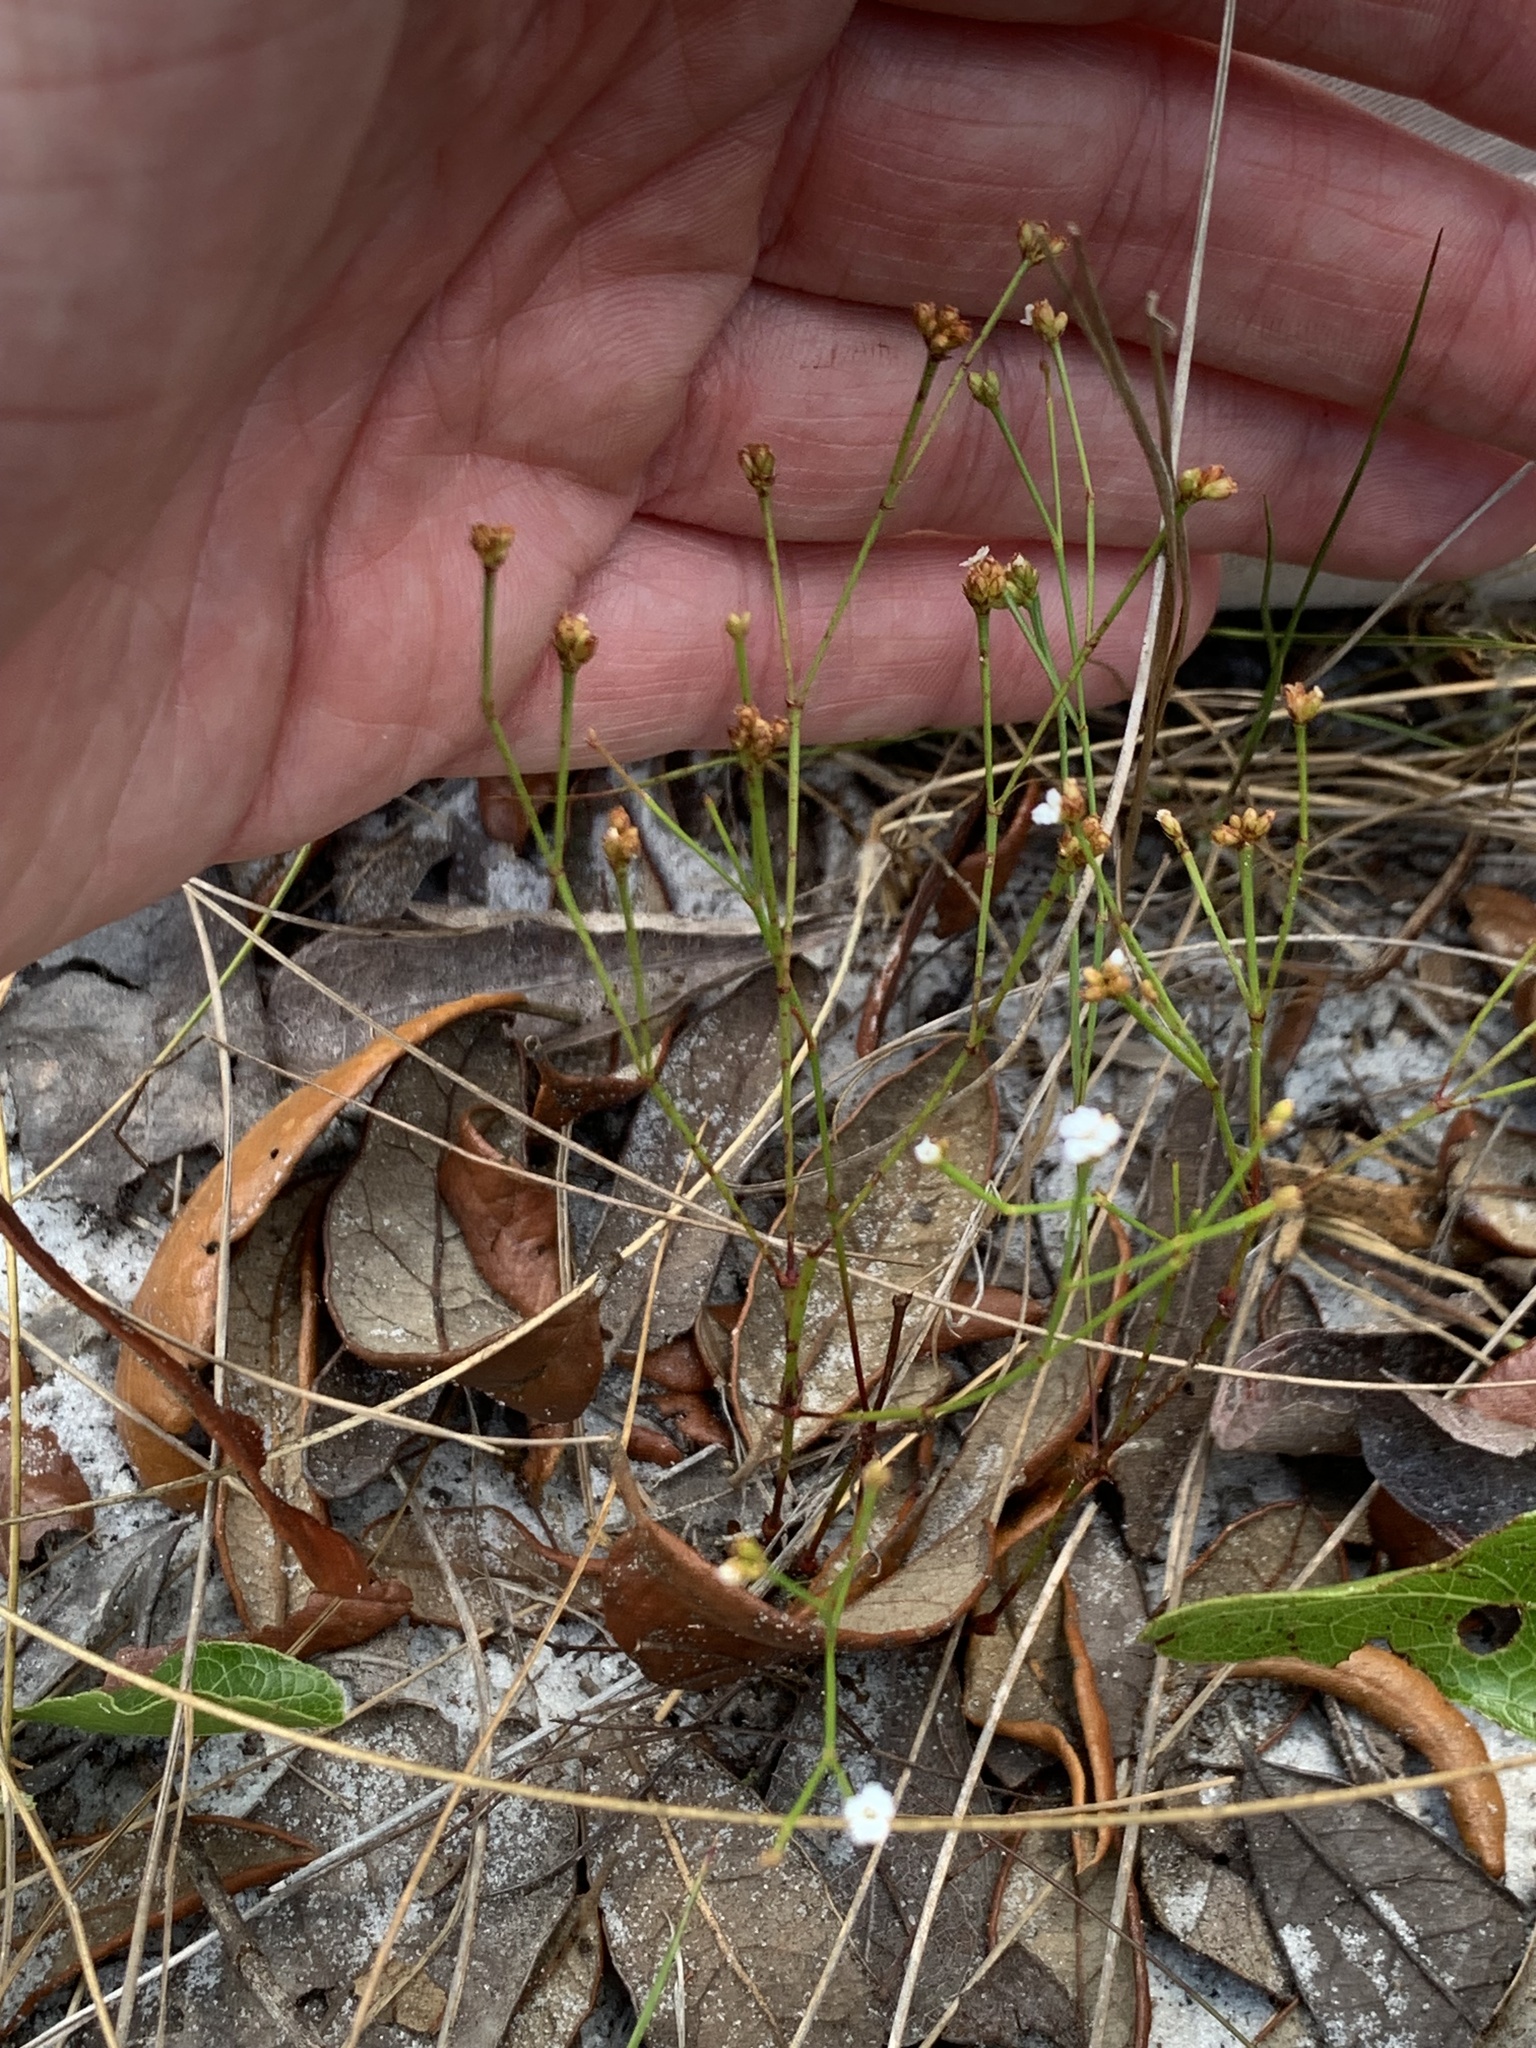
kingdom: Plantae
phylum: Tracheophyta
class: Magnoliopsida
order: Caryophyllales
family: Caryophyllaceae
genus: Stipulicida
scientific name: Stipulicida setacea
